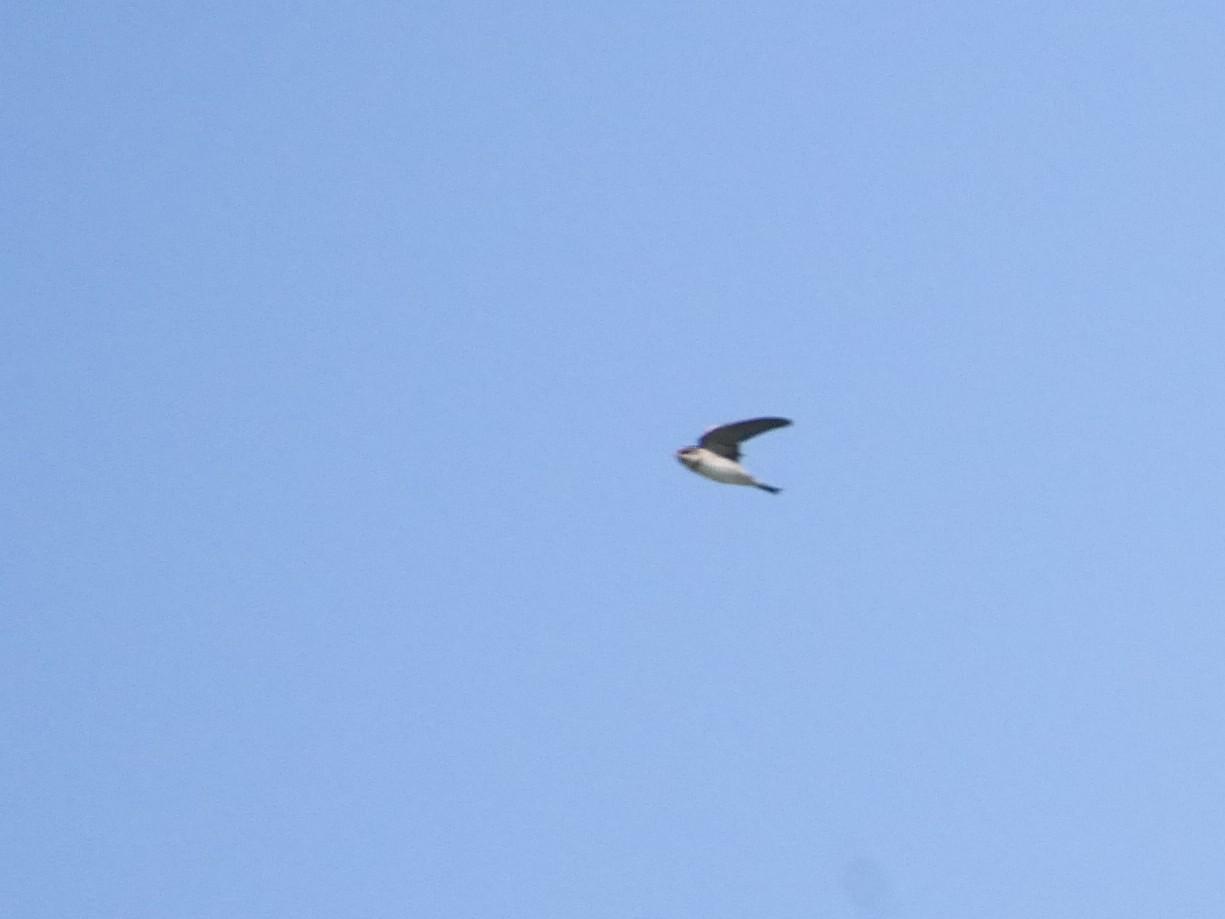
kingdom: Animalia
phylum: Chordata
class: Aves
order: Passeriformes
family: Hirundinidae
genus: Riparia
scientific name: Riparia riparia
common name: Sand martin
